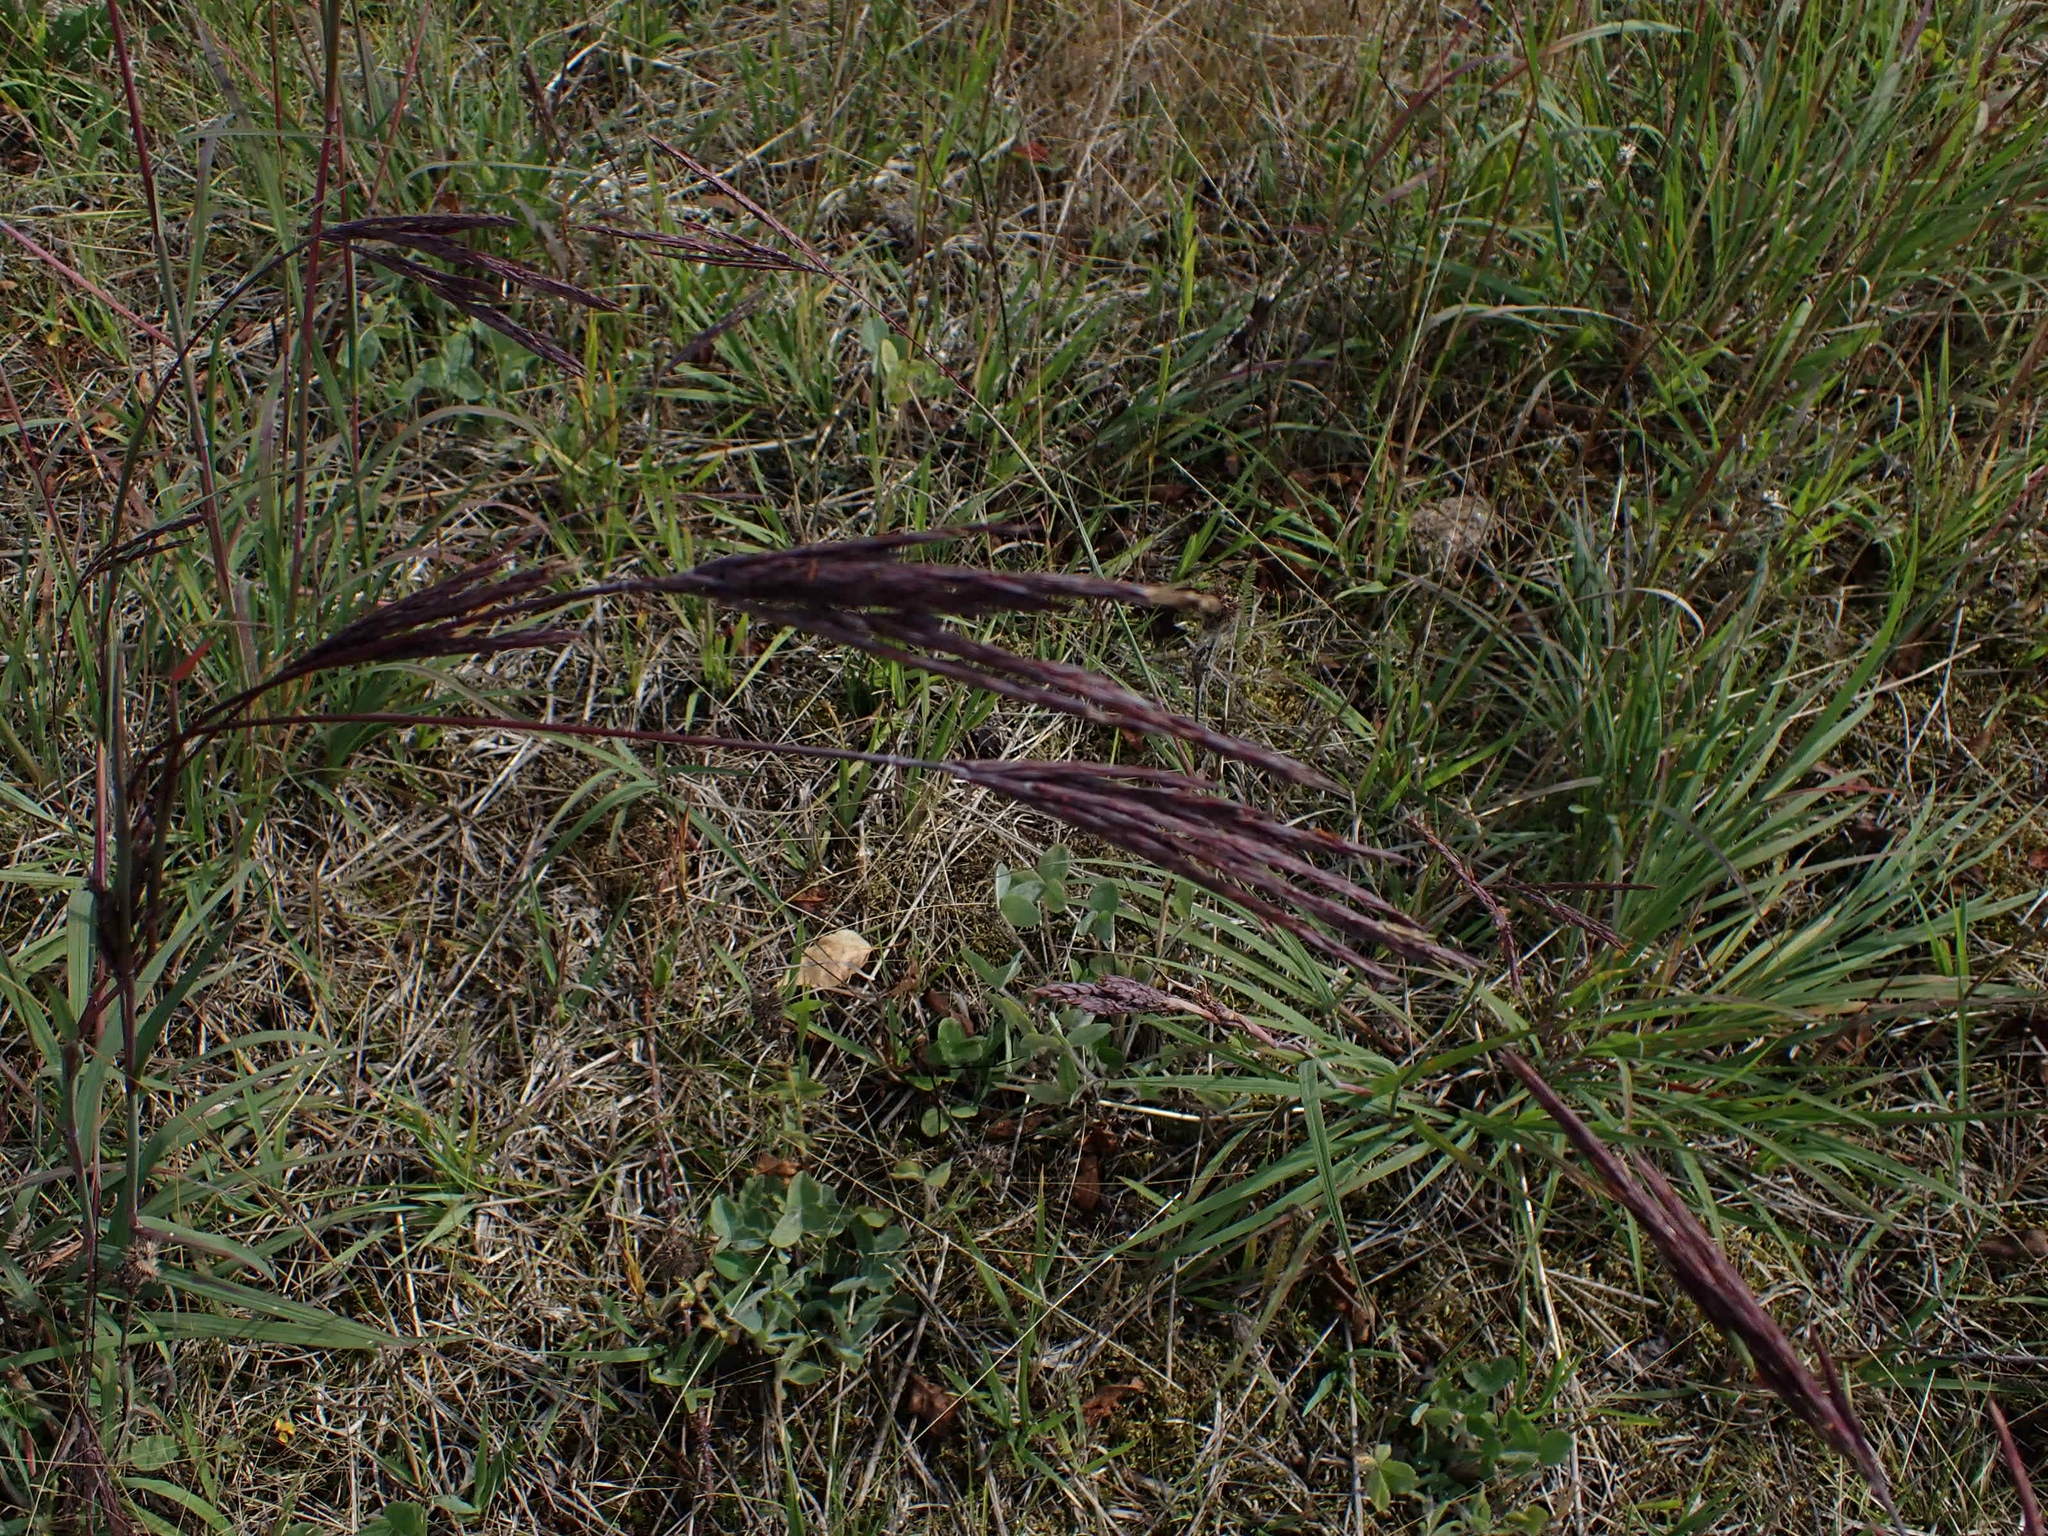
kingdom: Plantae
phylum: Tracheophyta
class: Liliopsida
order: Poales
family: Poaceae
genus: Andropogon
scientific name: Andropogon gerardi
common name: Big bluestem
